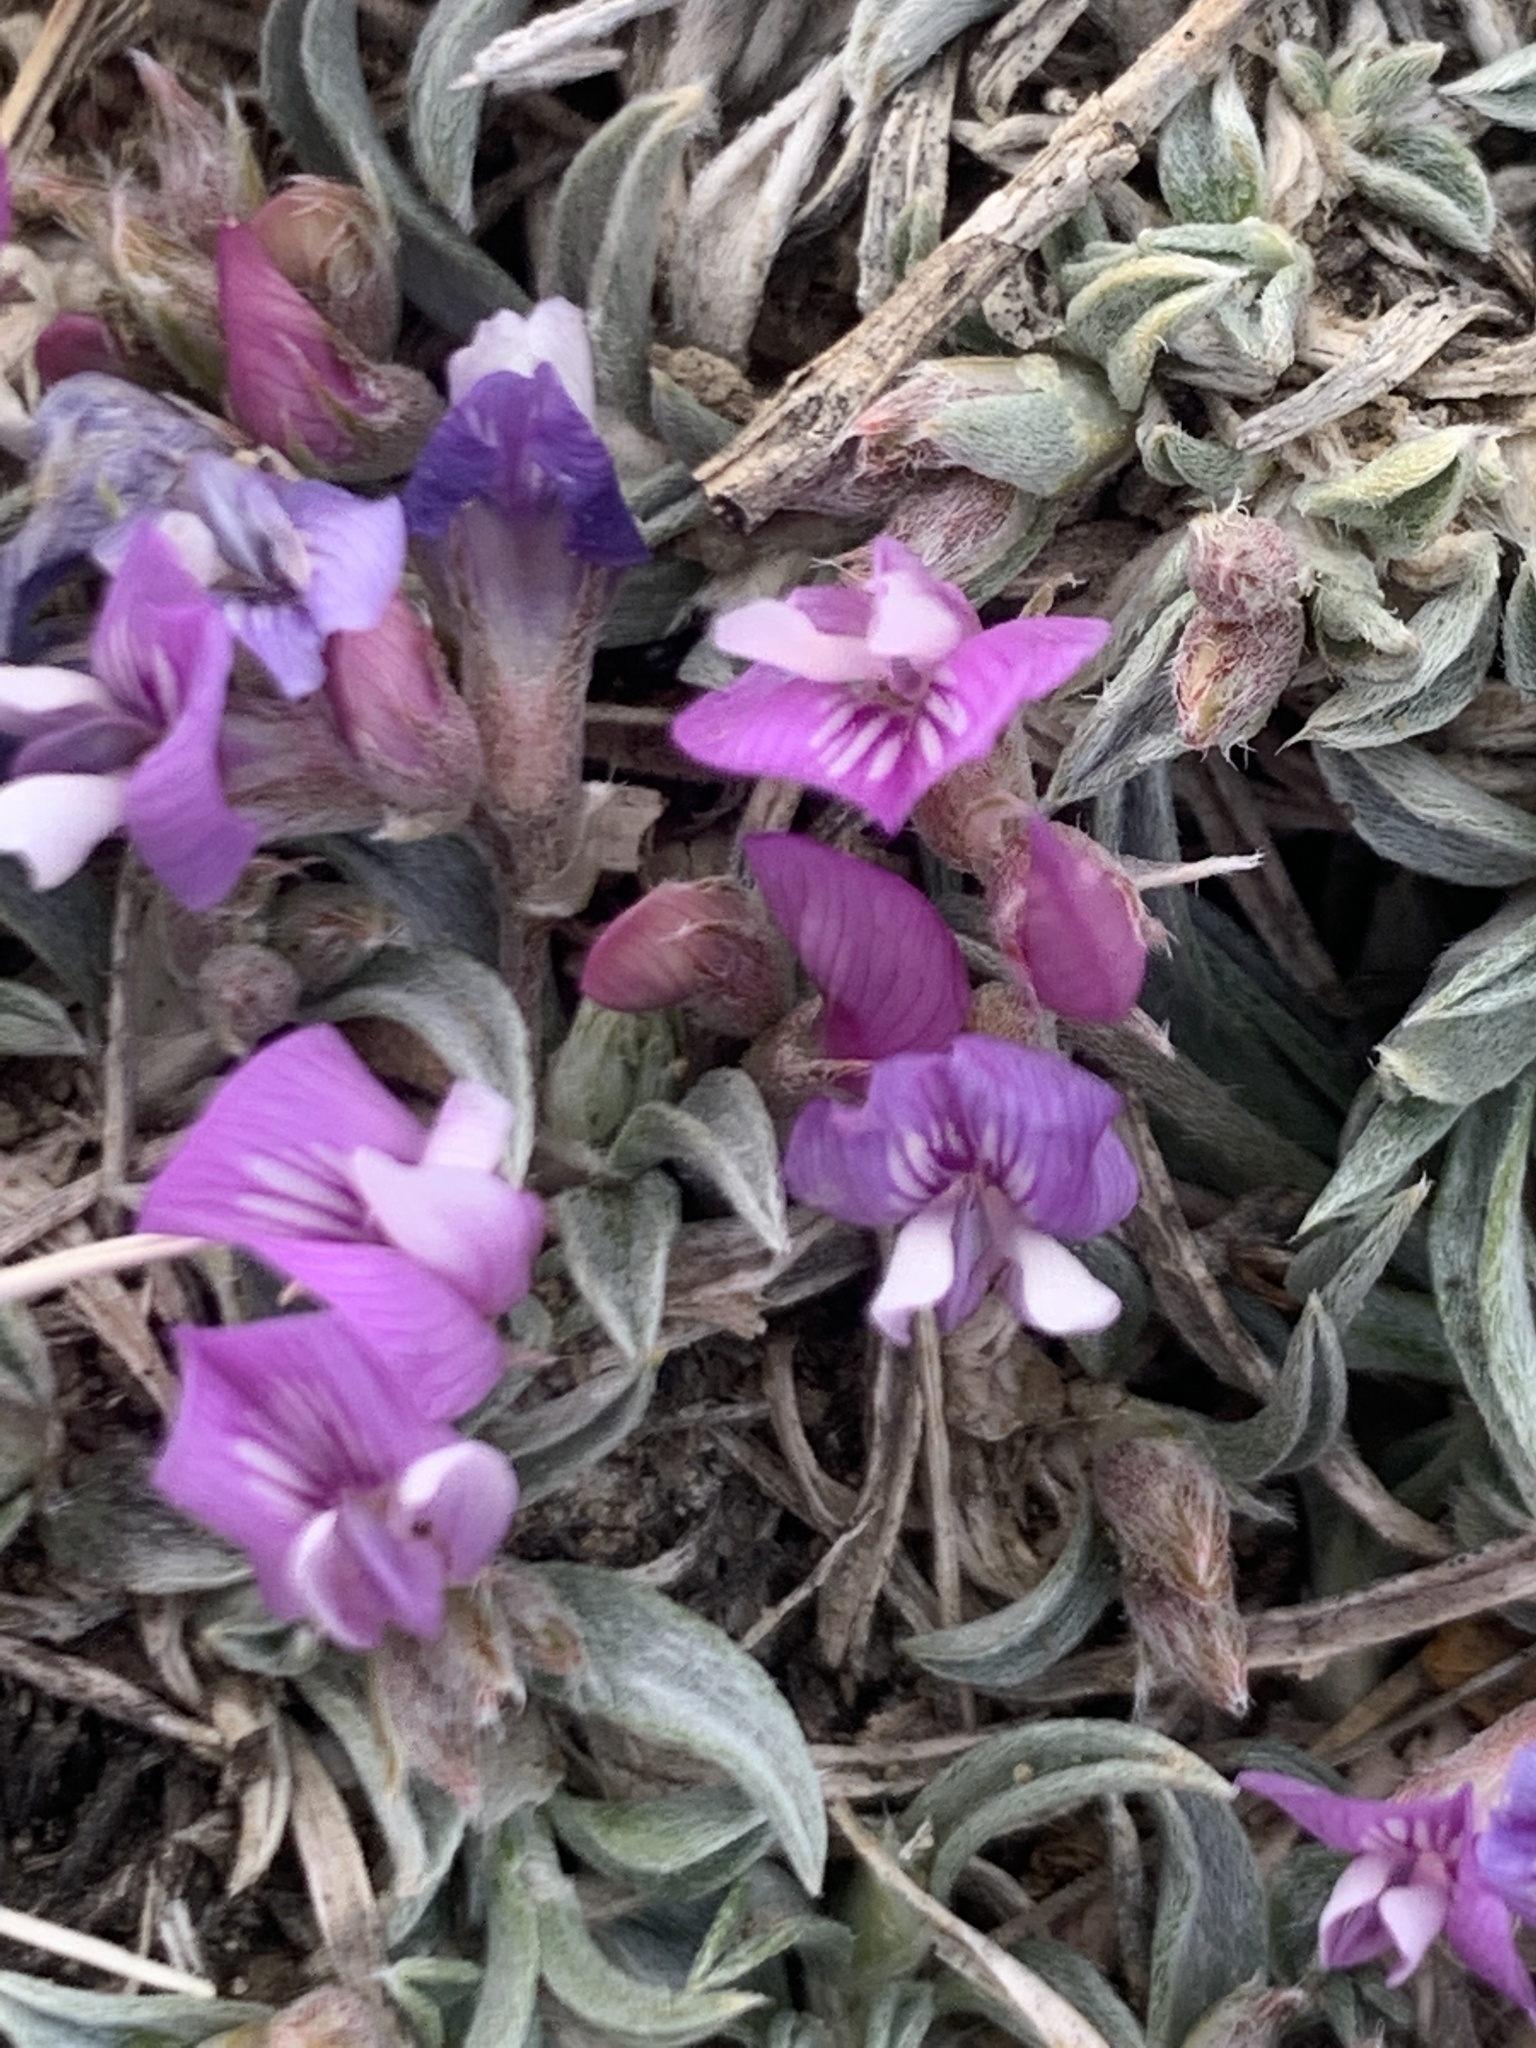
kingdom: Plantae
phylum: Tracheophyta
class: Magnoliopsida
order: Fabales
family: Fabaceae
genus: Astragalus
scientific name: Astragalus spatulatus
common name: Draba milk-vetch
